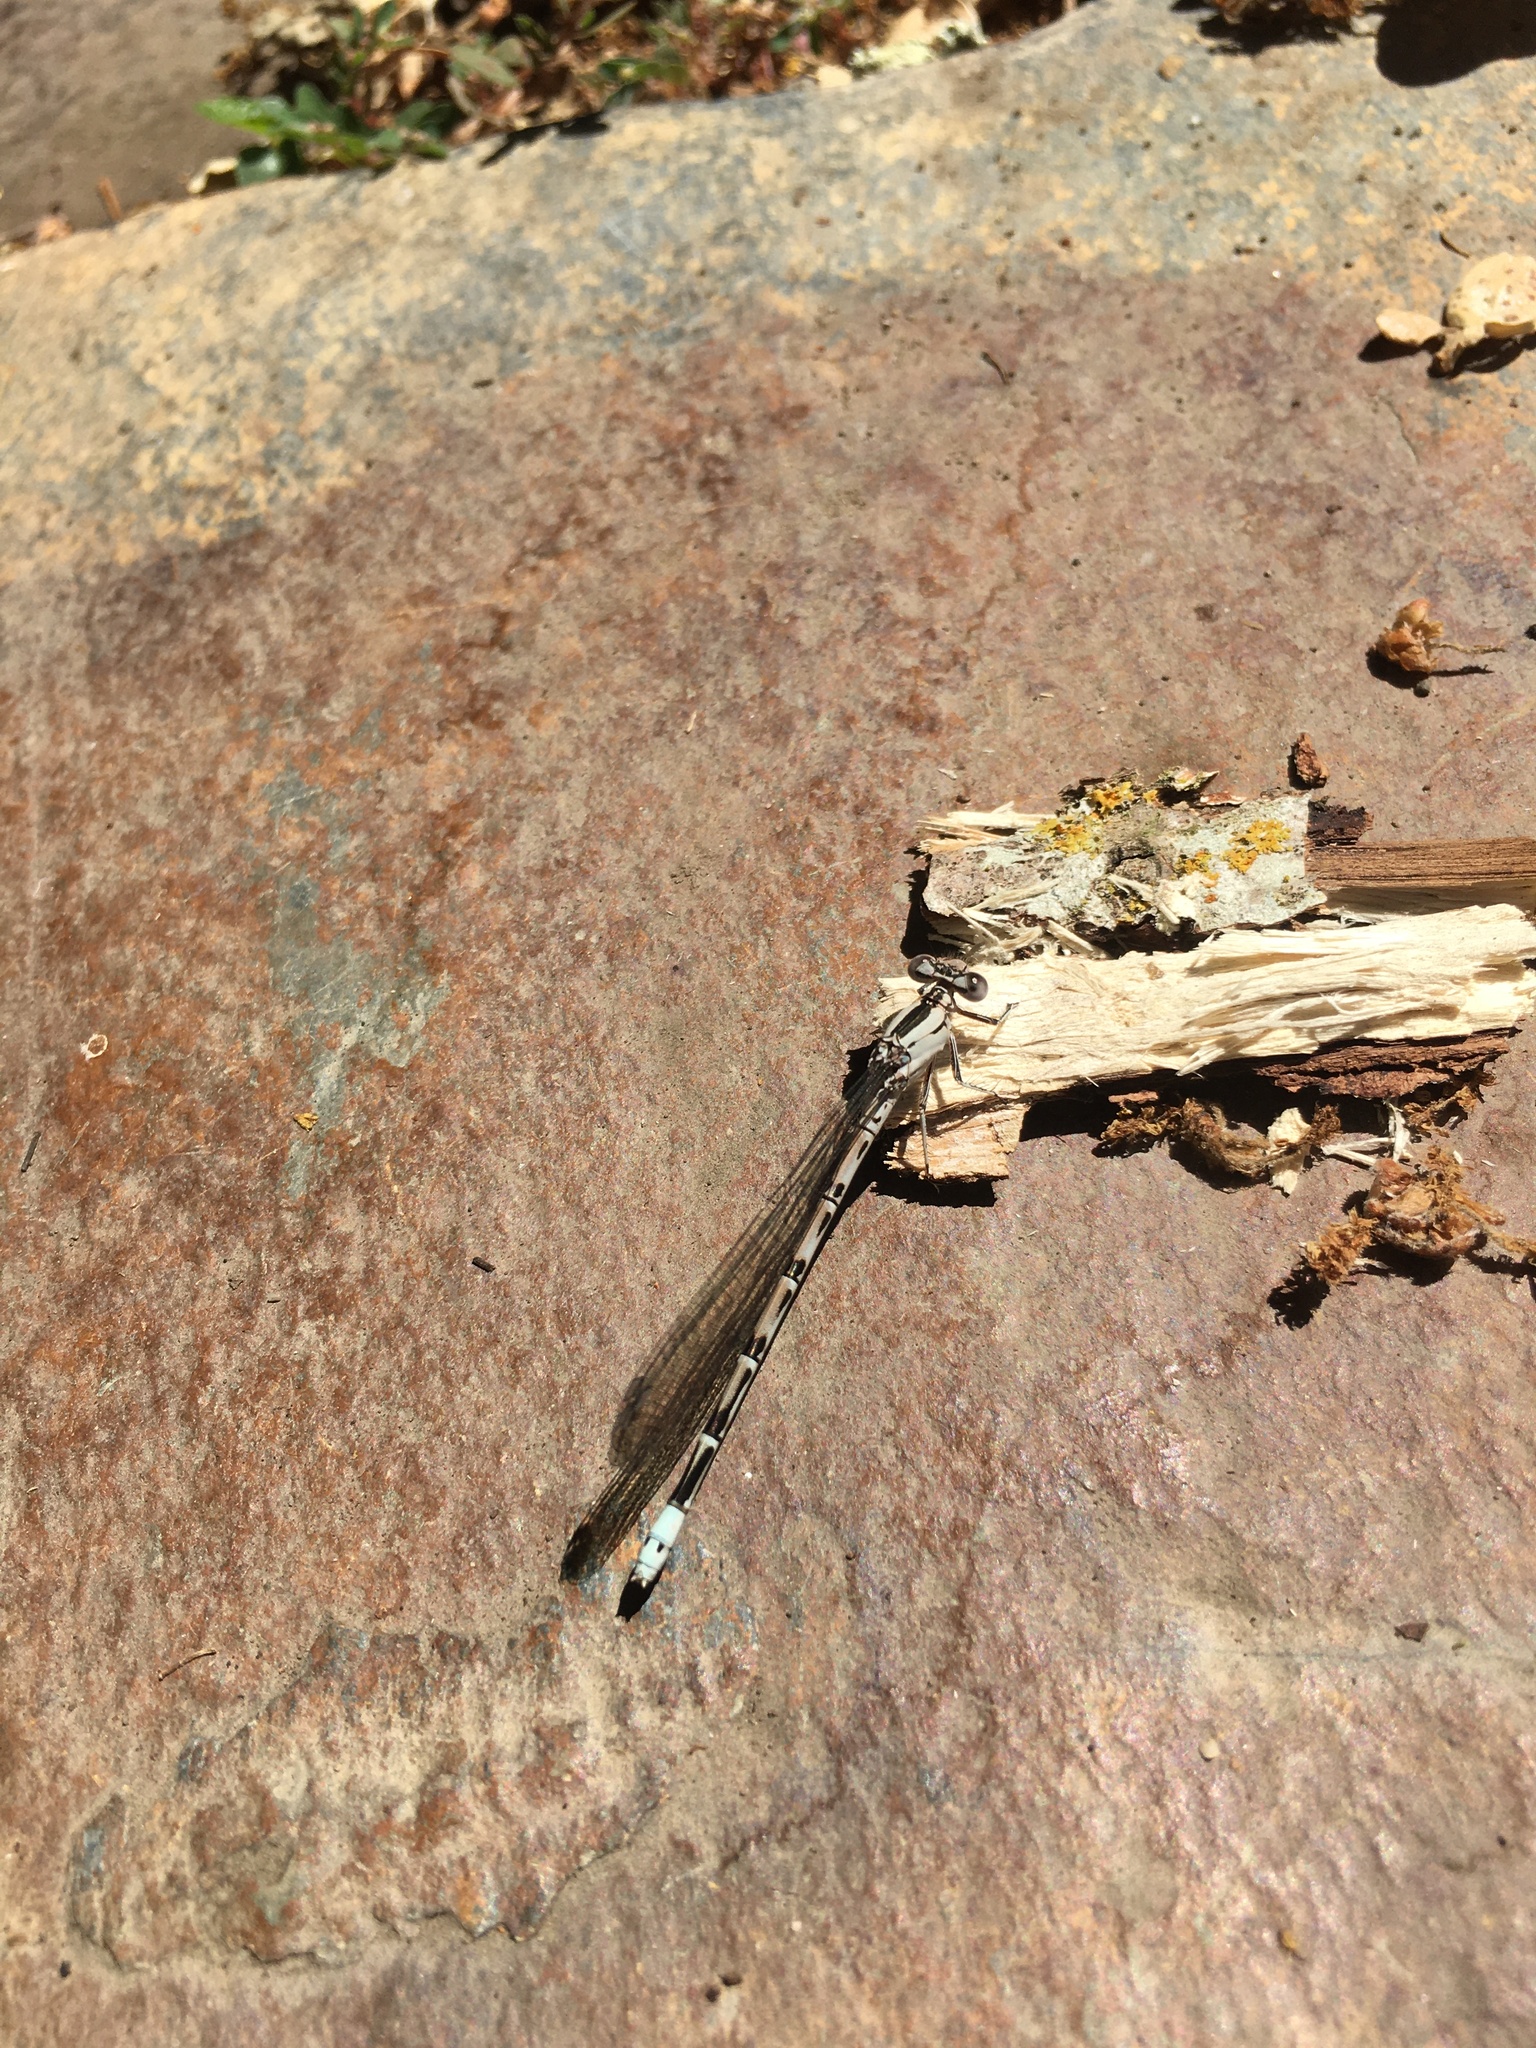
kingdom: Animalia
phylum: Arthropoda
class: Insecta
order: Odonata
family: Coenagrionidae
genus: Argia
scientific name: Argia vivida
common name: Vivid dancer
